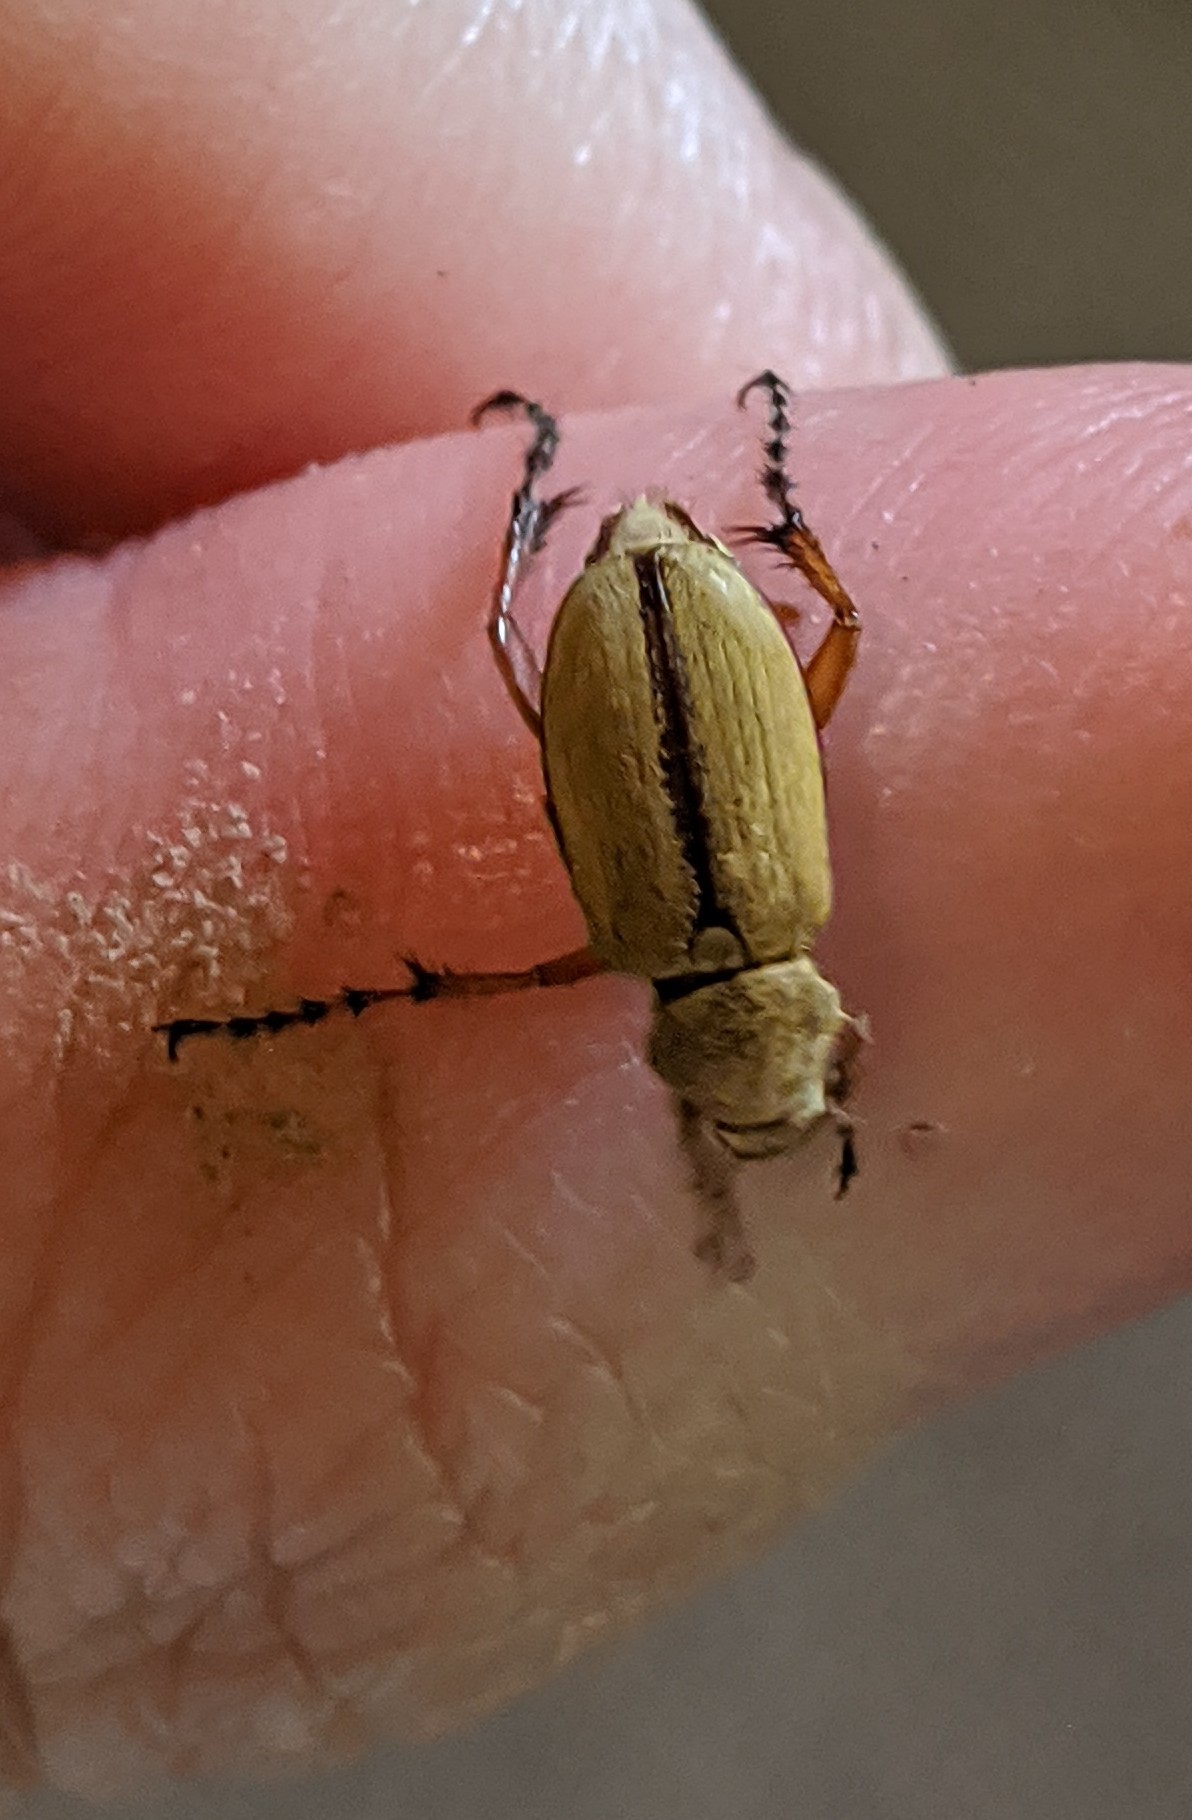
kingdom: Animalia
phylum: Arthropoda
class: Insecta
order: Coleoptera
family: Scarabaeidae
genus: Macrodactylus
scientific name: Macrodactylus subspinosus
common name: American rose chafer
